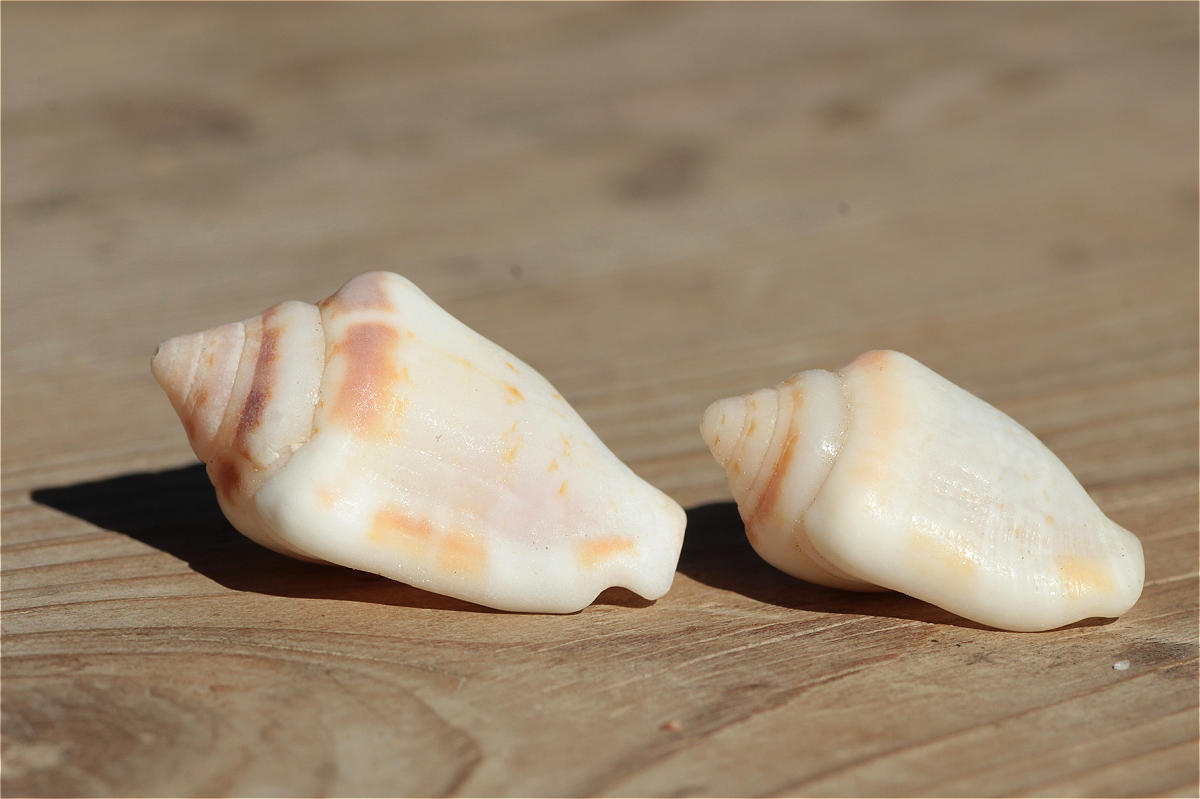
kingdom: Animalia
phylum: Mollusca
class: Gastropoda
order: Littorinimorpha
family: Strombidae
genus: Canarium
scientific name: Canarium mutabile
